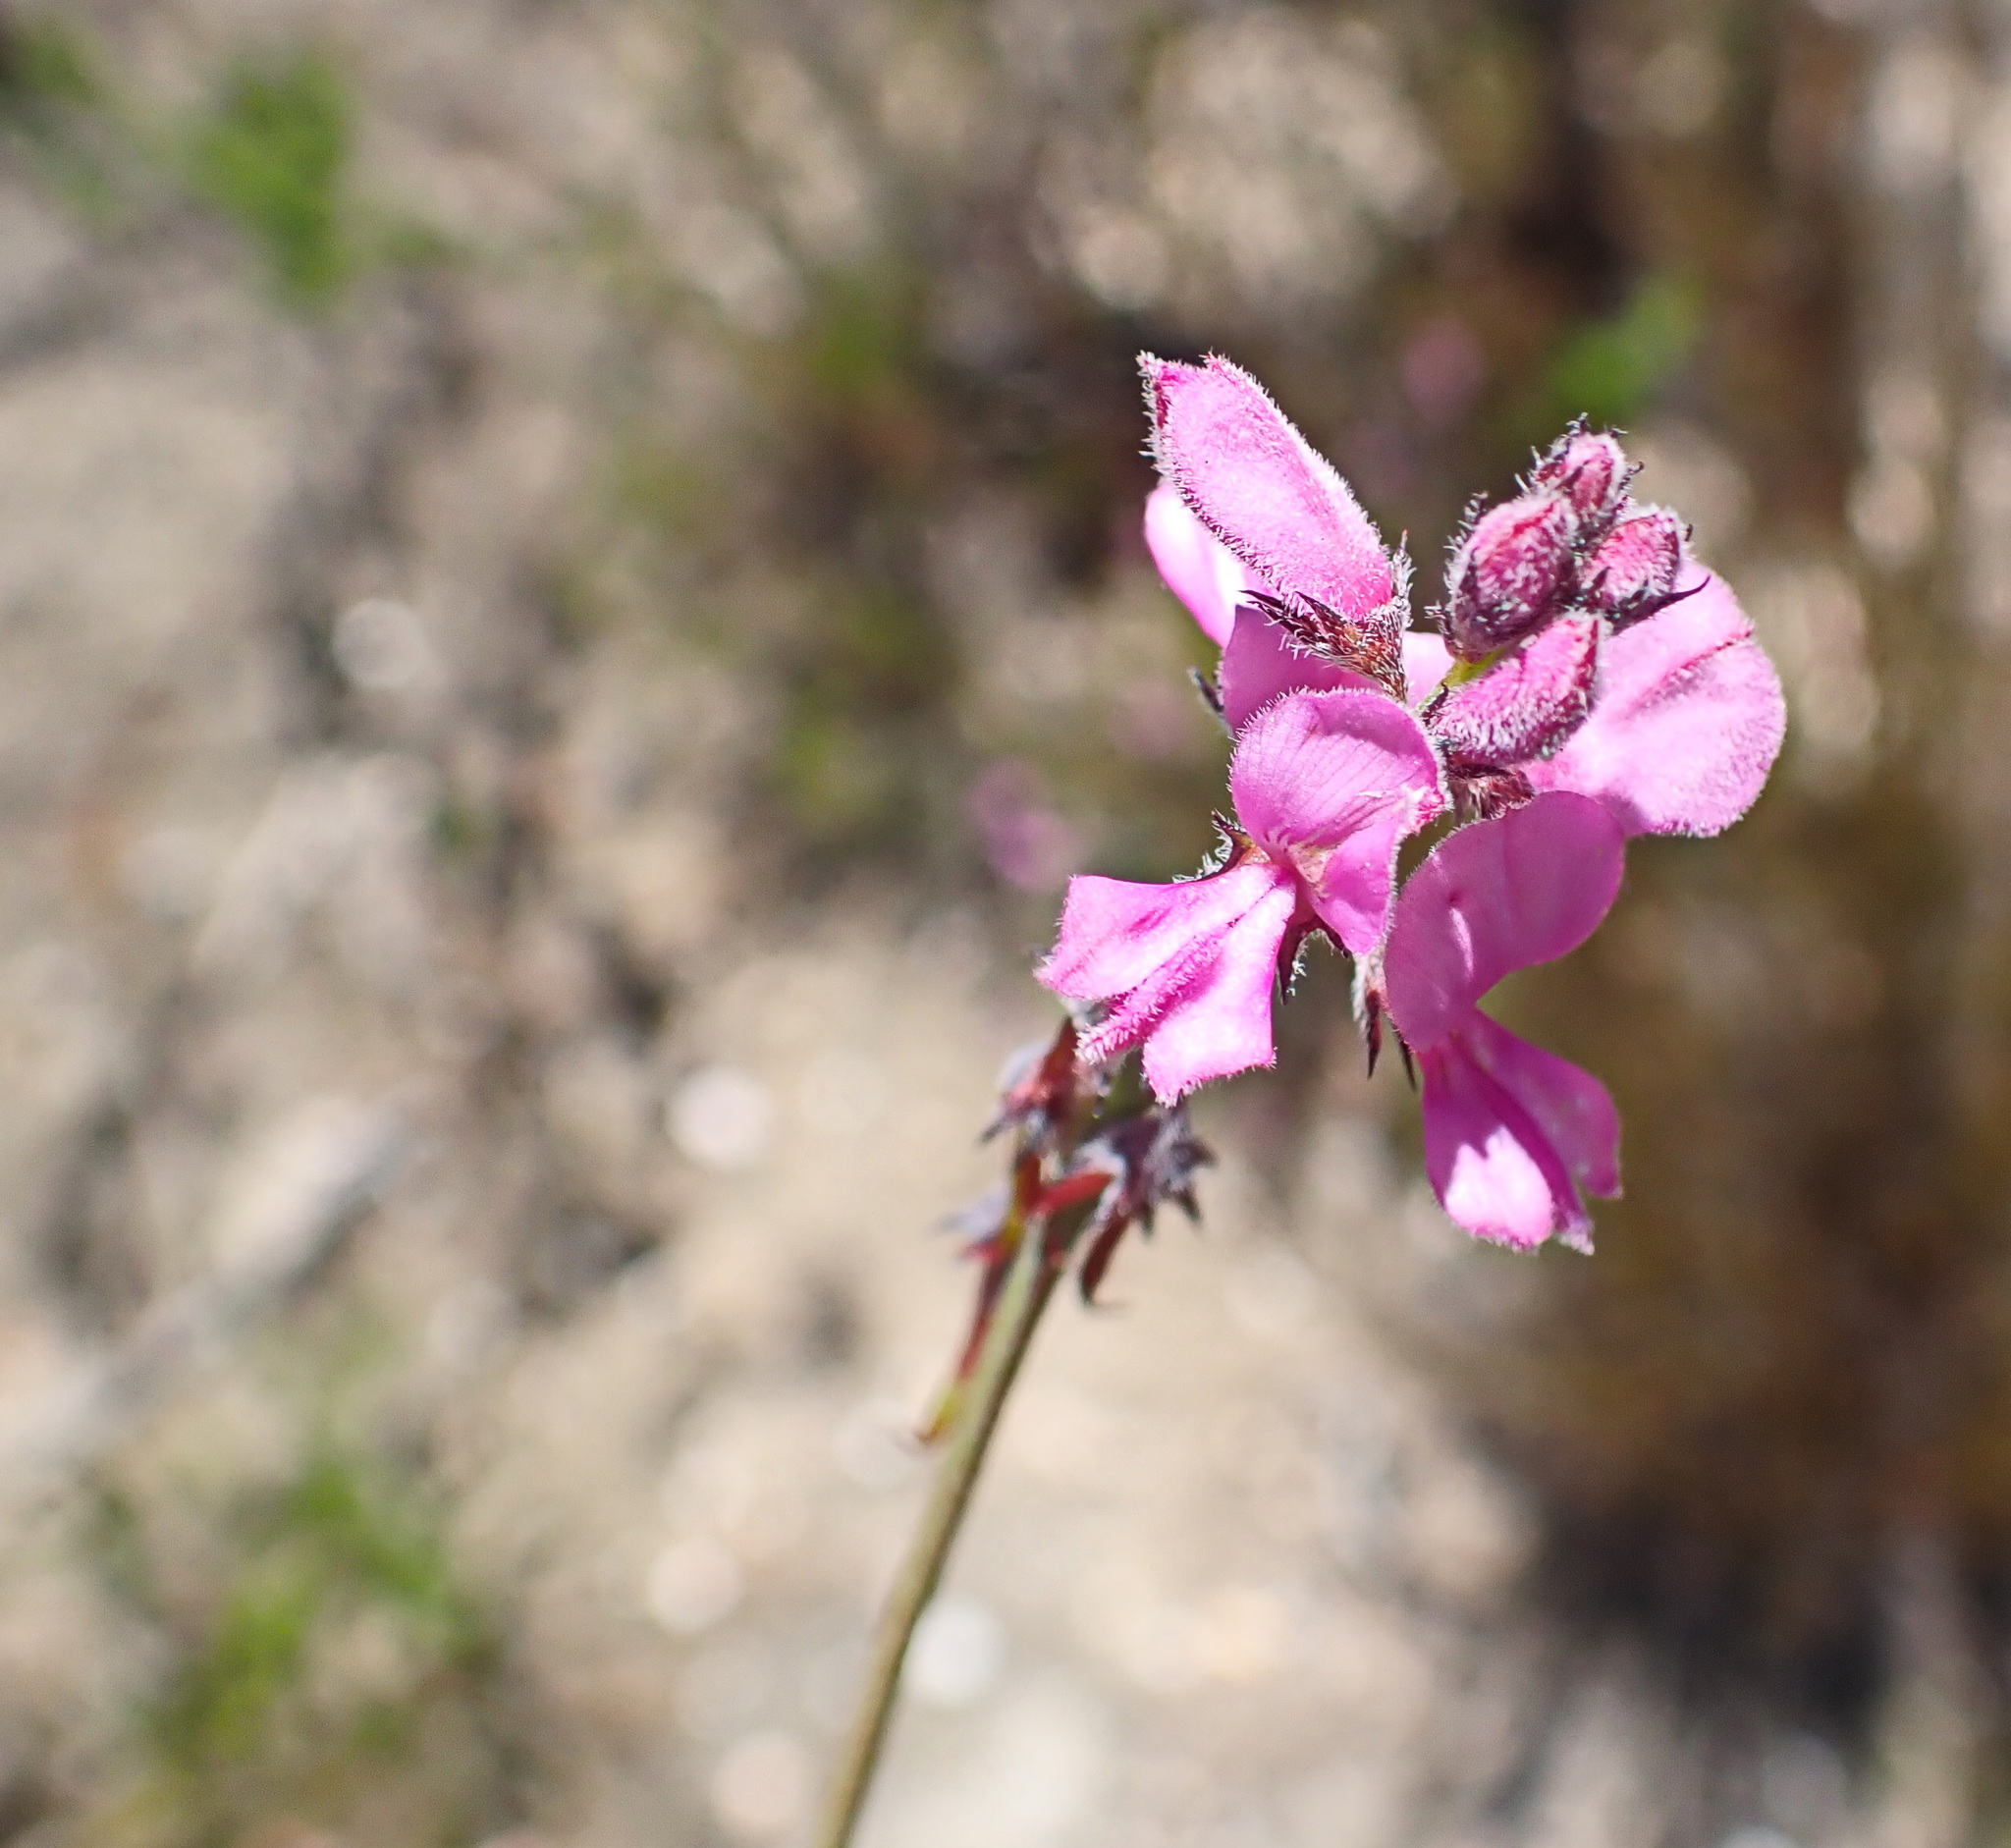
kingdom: Plantae
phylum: Tracheophyta
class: Magnoliopsida
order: Fabales
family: Fabaceae
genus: Indigofera
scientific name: Indigofera declinata
